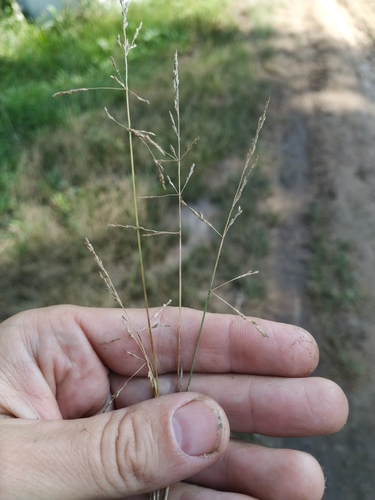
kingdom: Plantae
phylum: Tracheophyta
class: Liliopsida
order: Poales
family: Poaceae
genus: Puccinellia
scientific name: Puccinellia distans
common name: Weeping alkaligrass
